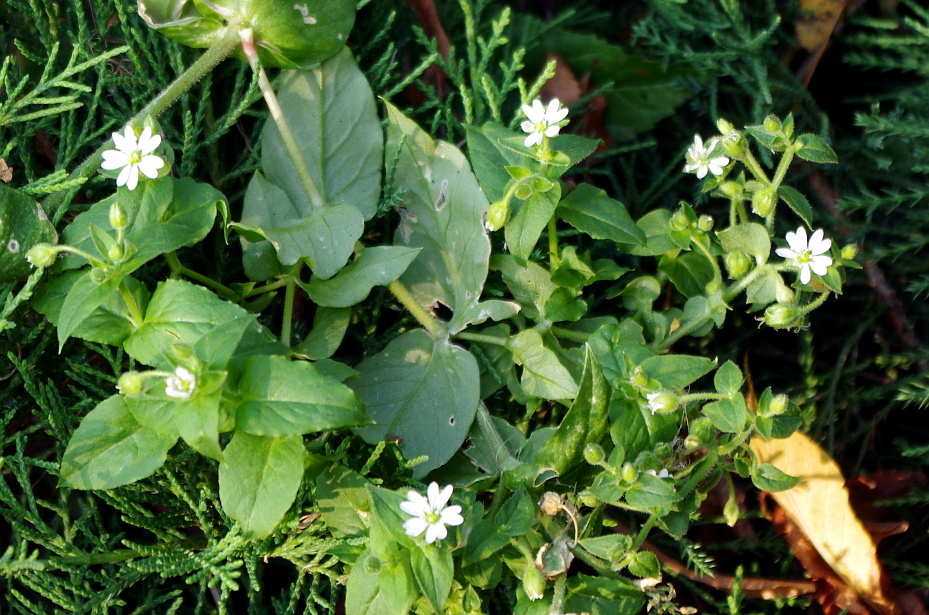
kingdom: Plantae
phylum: Tracheophyta
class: Magnoliopsida
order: Caryophyllales
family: Caryophyllaceae
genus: Stellaria
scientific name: Stellaria aquatica
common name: Water chickweed
